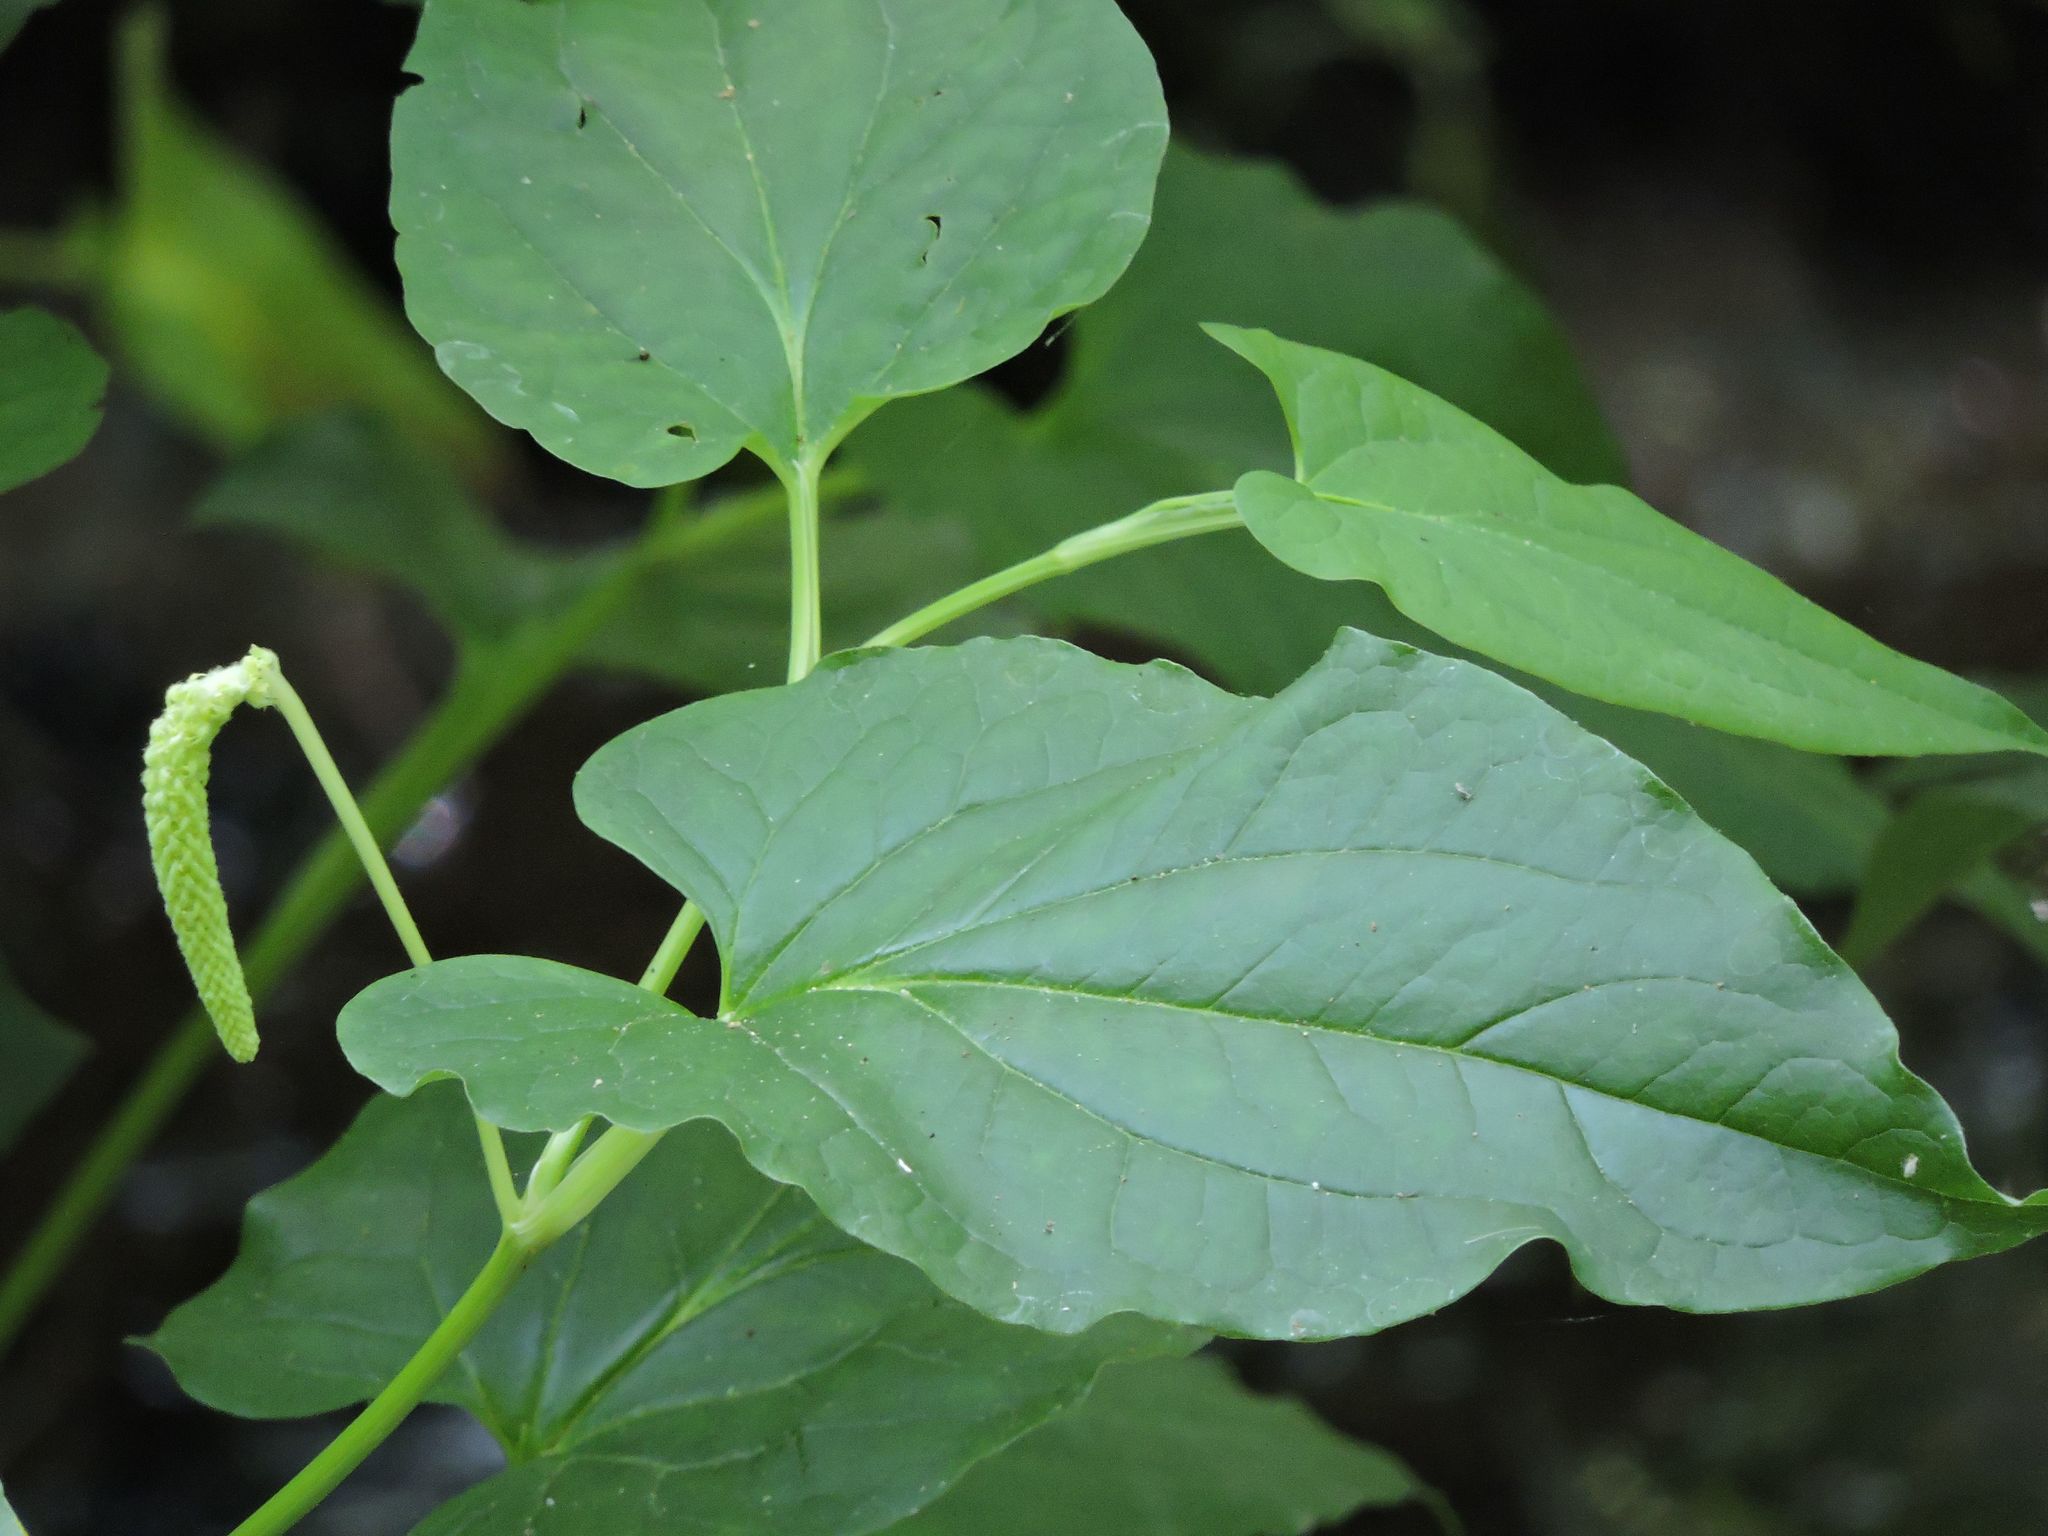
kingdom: Plantae
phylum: Tracheophyta
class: Magnoliopsida
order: Piperales
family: Saururaceae
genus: Saururus
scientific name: Saururus cernuus
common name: Lizard's-tail
